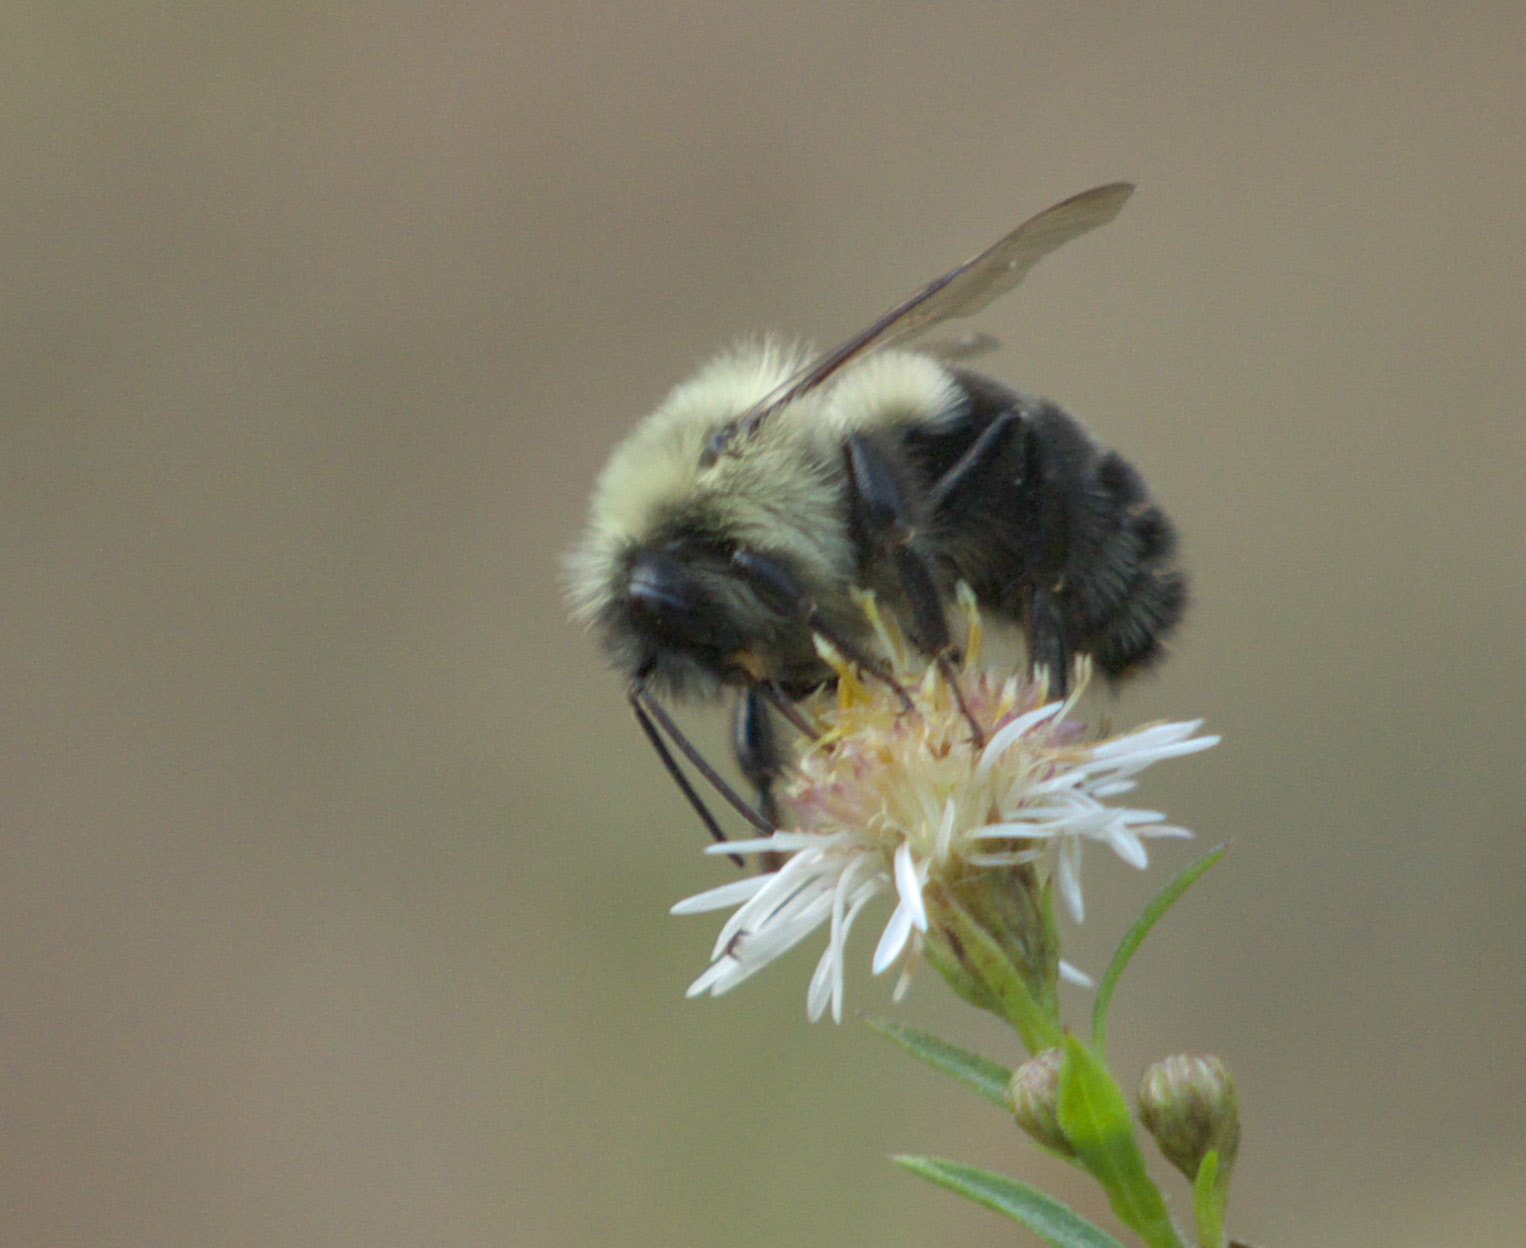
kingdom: Animalia
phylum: Arthropoda
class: Insecta
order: Hymenoptera
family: Apidae
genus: Bombus
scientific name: Bombus impatiens
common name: Common eastern bumble bee
